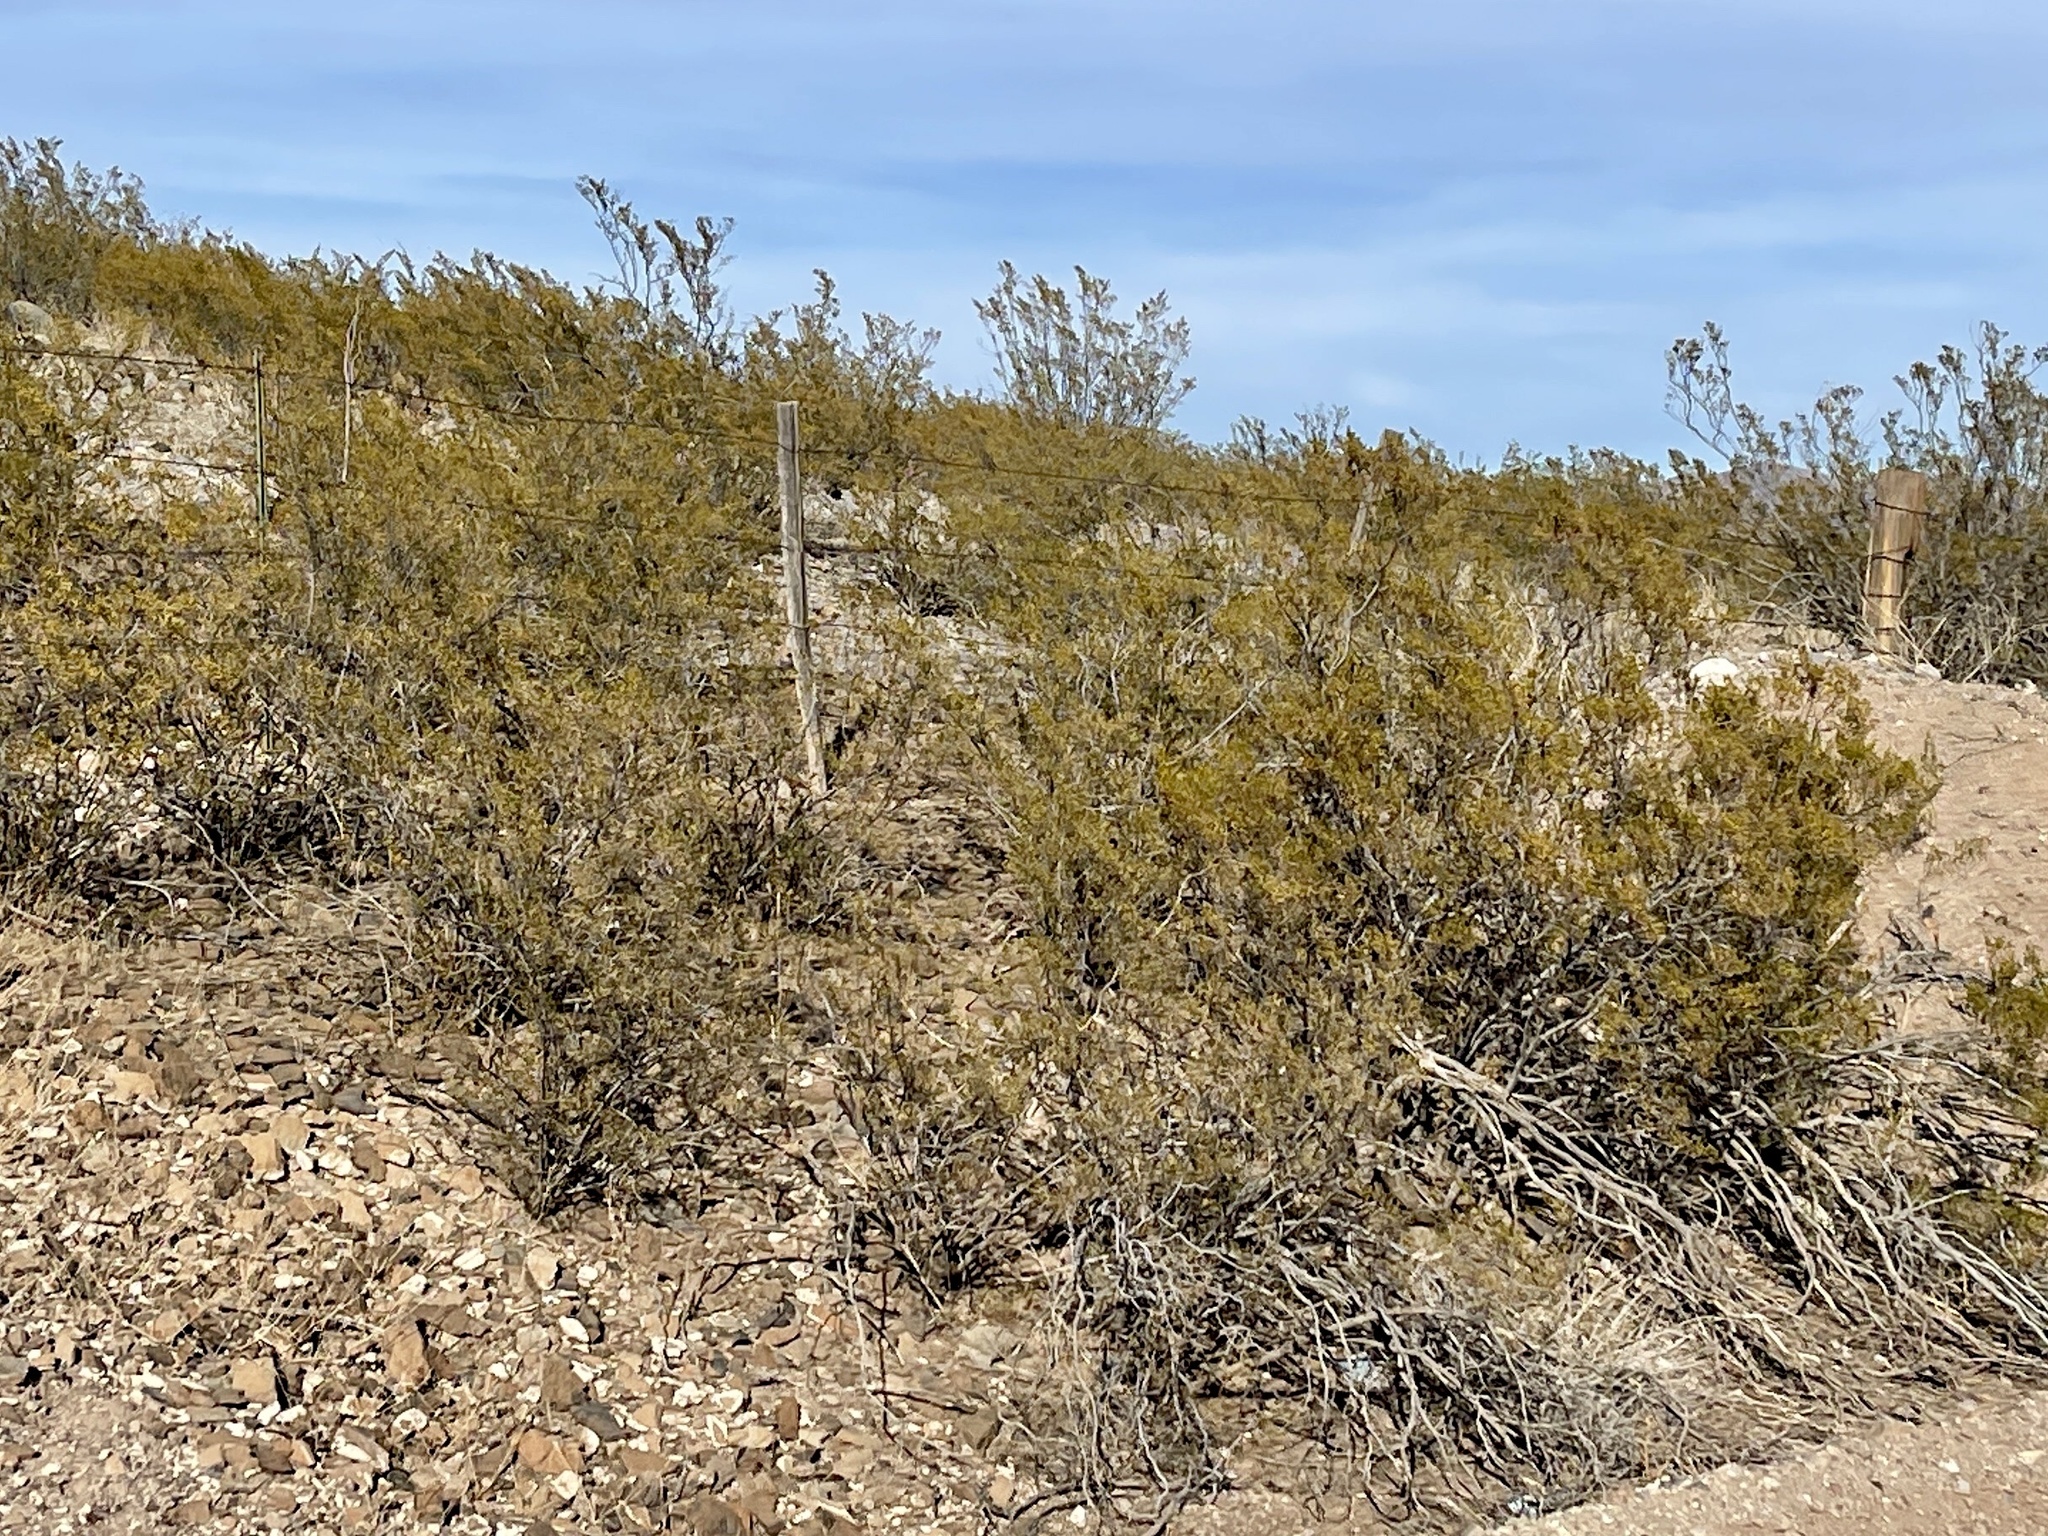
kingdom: Plantae
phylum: Tracheophyta
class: Magnoliopsida
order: Zygophyllales
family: Zygophyllaceae
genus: Larrea
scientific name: Larrea tridentata
